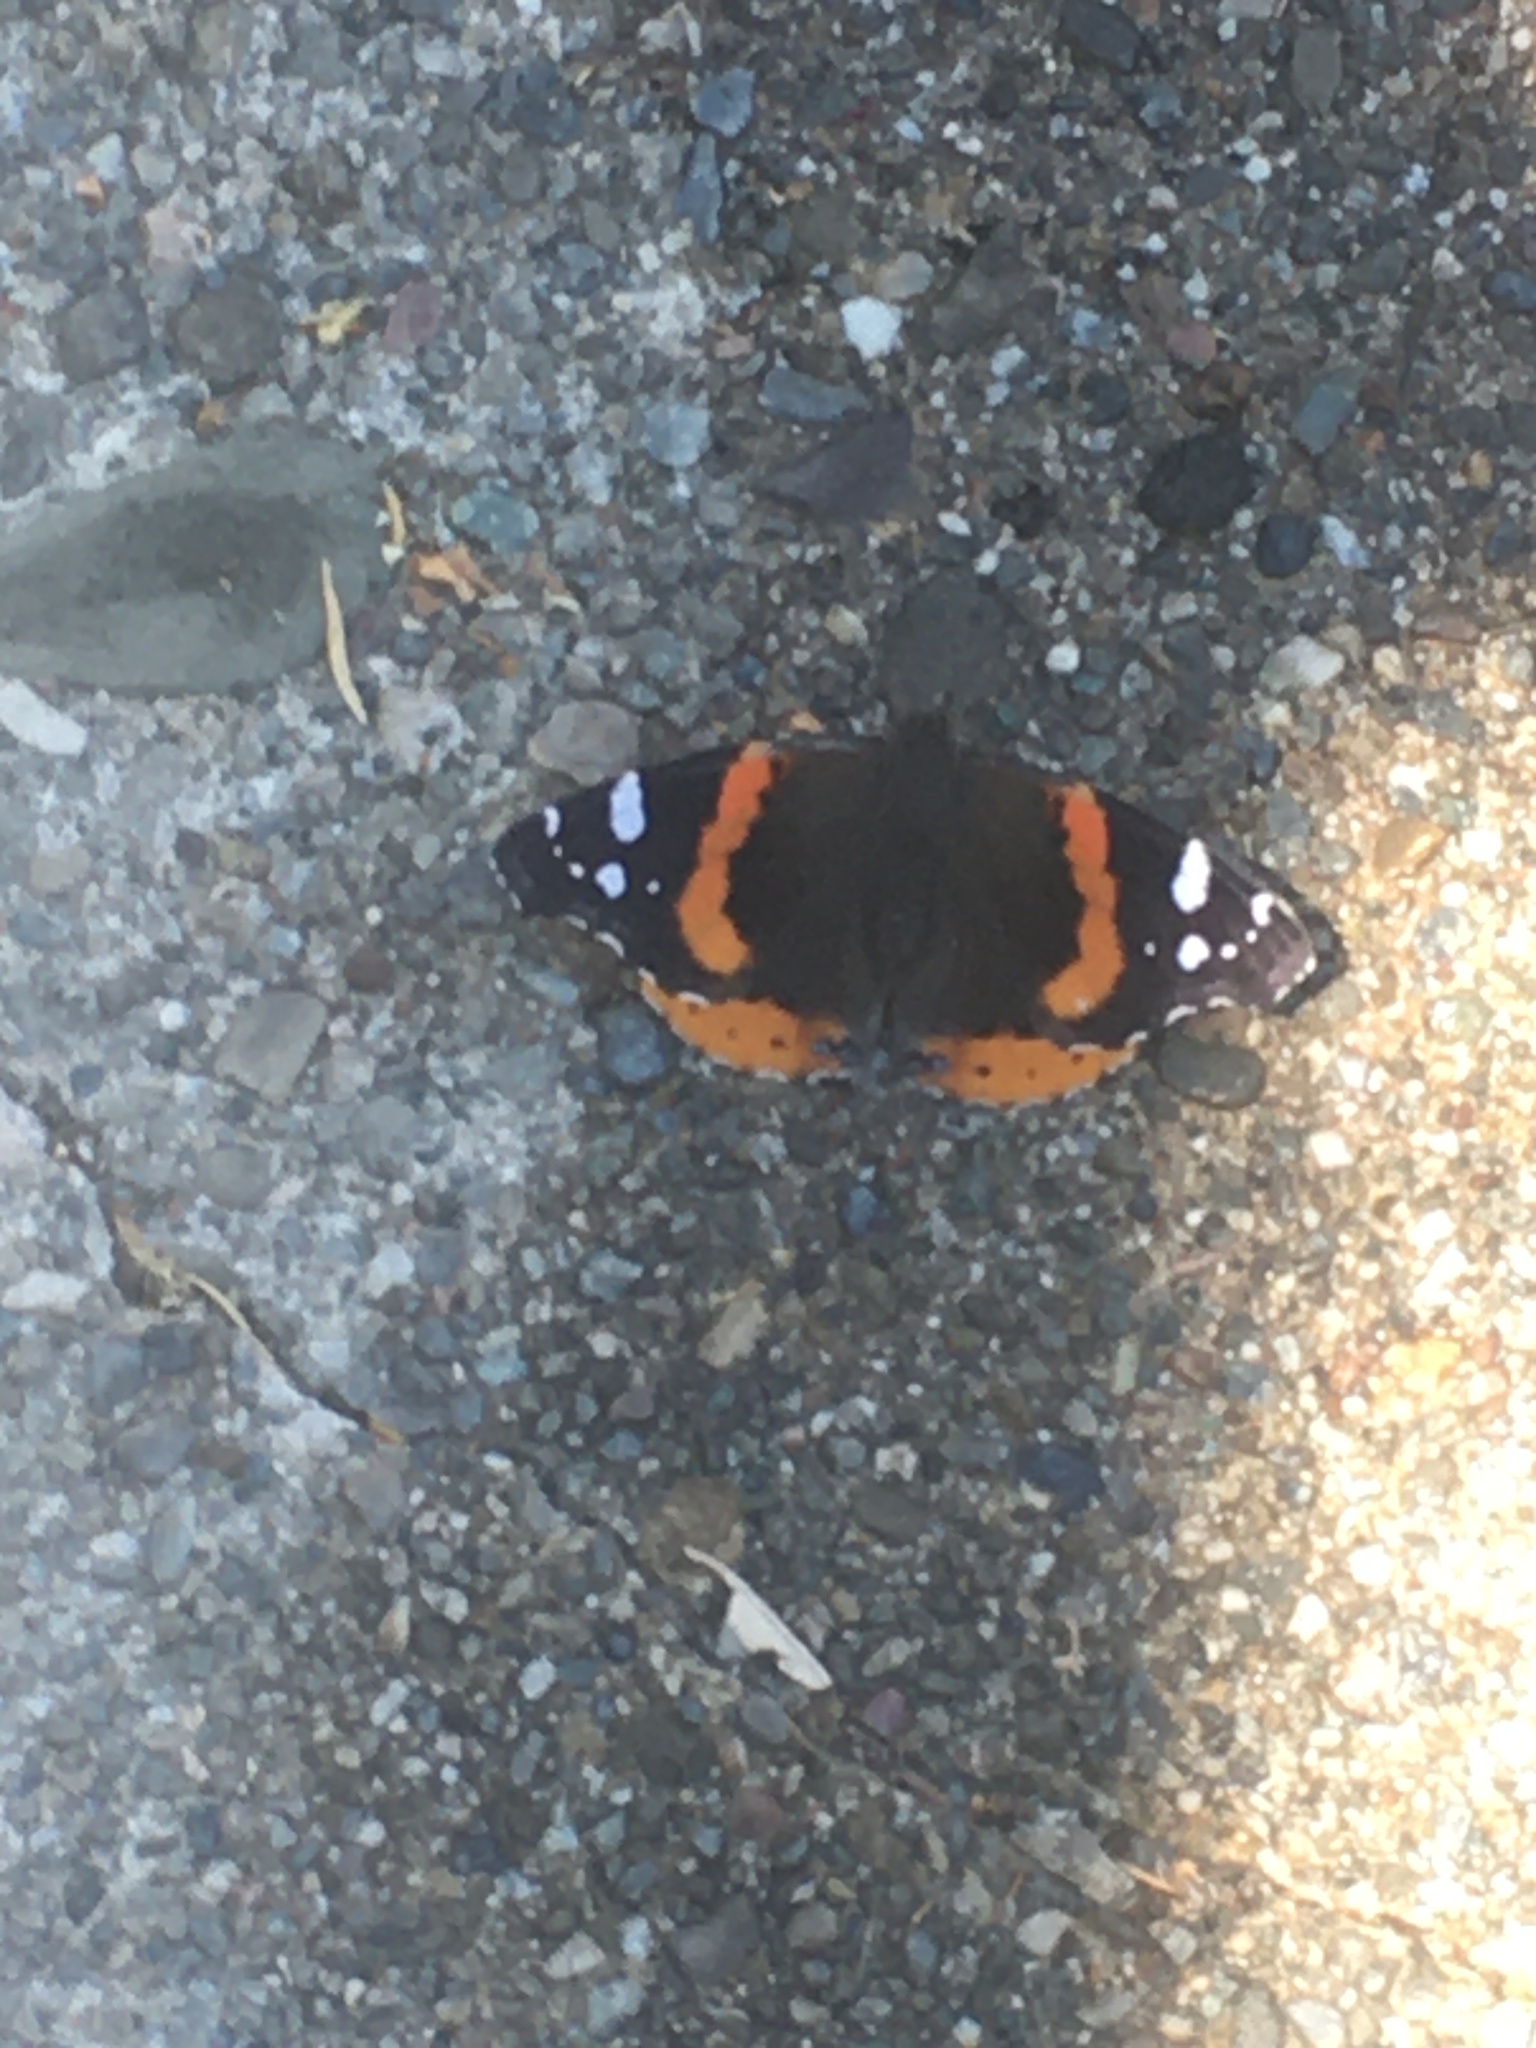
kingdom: Animalia
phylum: Arthropoda
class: Insecta
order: Lepidoptera
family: Nymphalidae
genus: Vanessa
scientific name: Vanessa atalanta
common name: Red admiral
